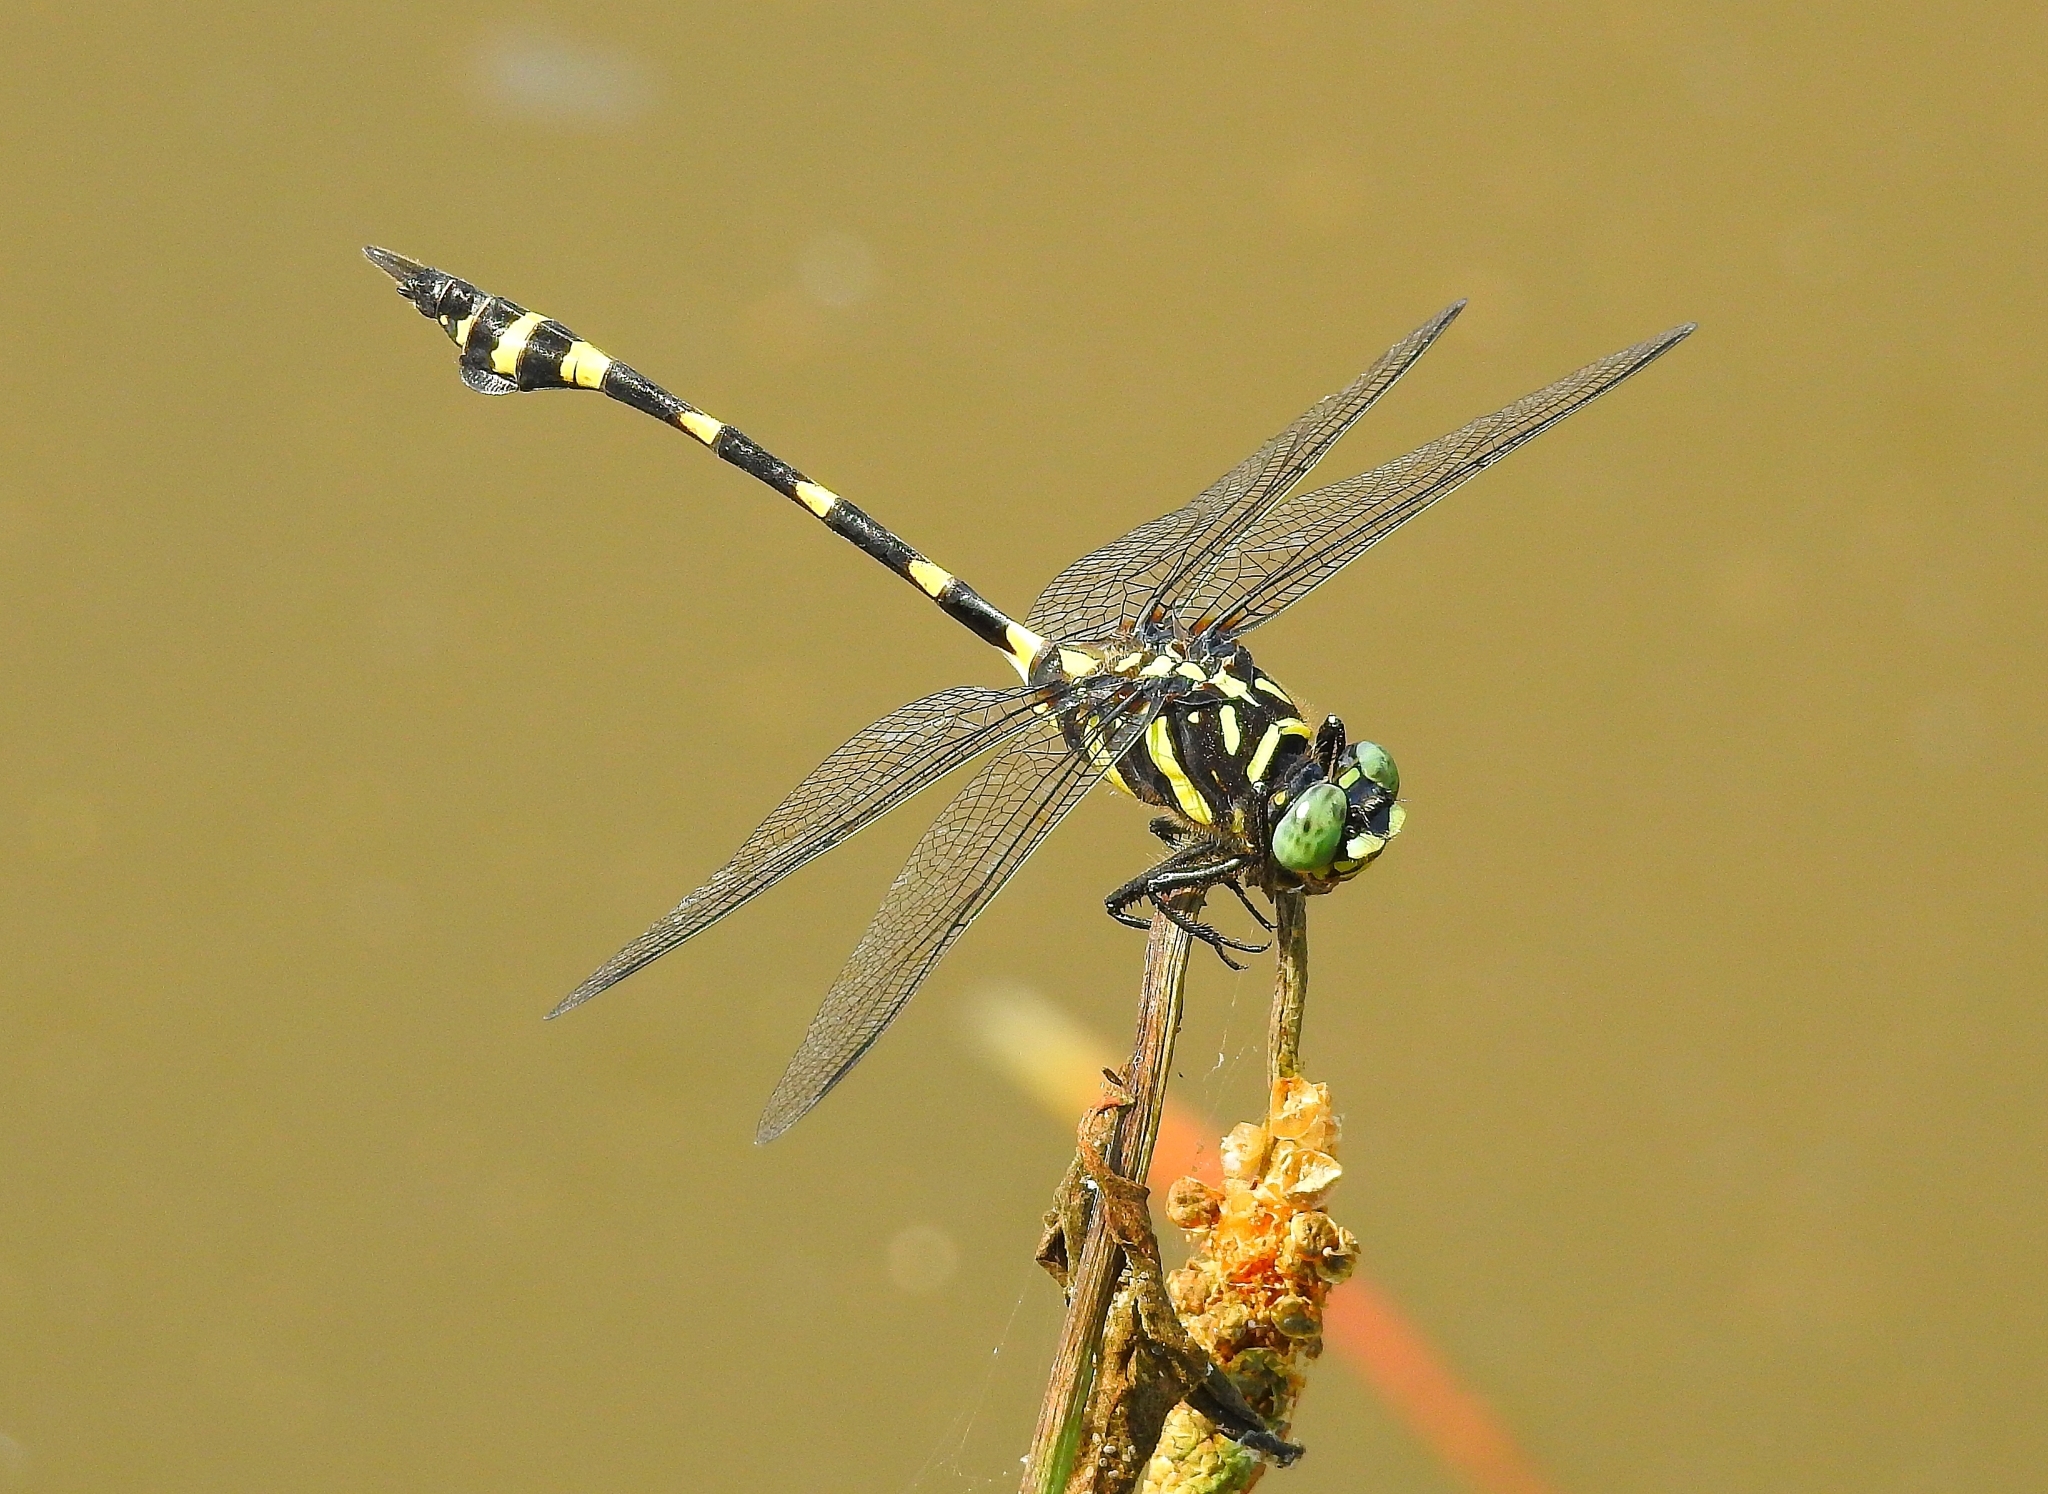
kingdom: Animalia
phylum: Arthropoda
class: Insecta
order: Odonata
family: Gomphidae
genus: Ictinogomphus
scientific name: Ictinogomphus rapax
